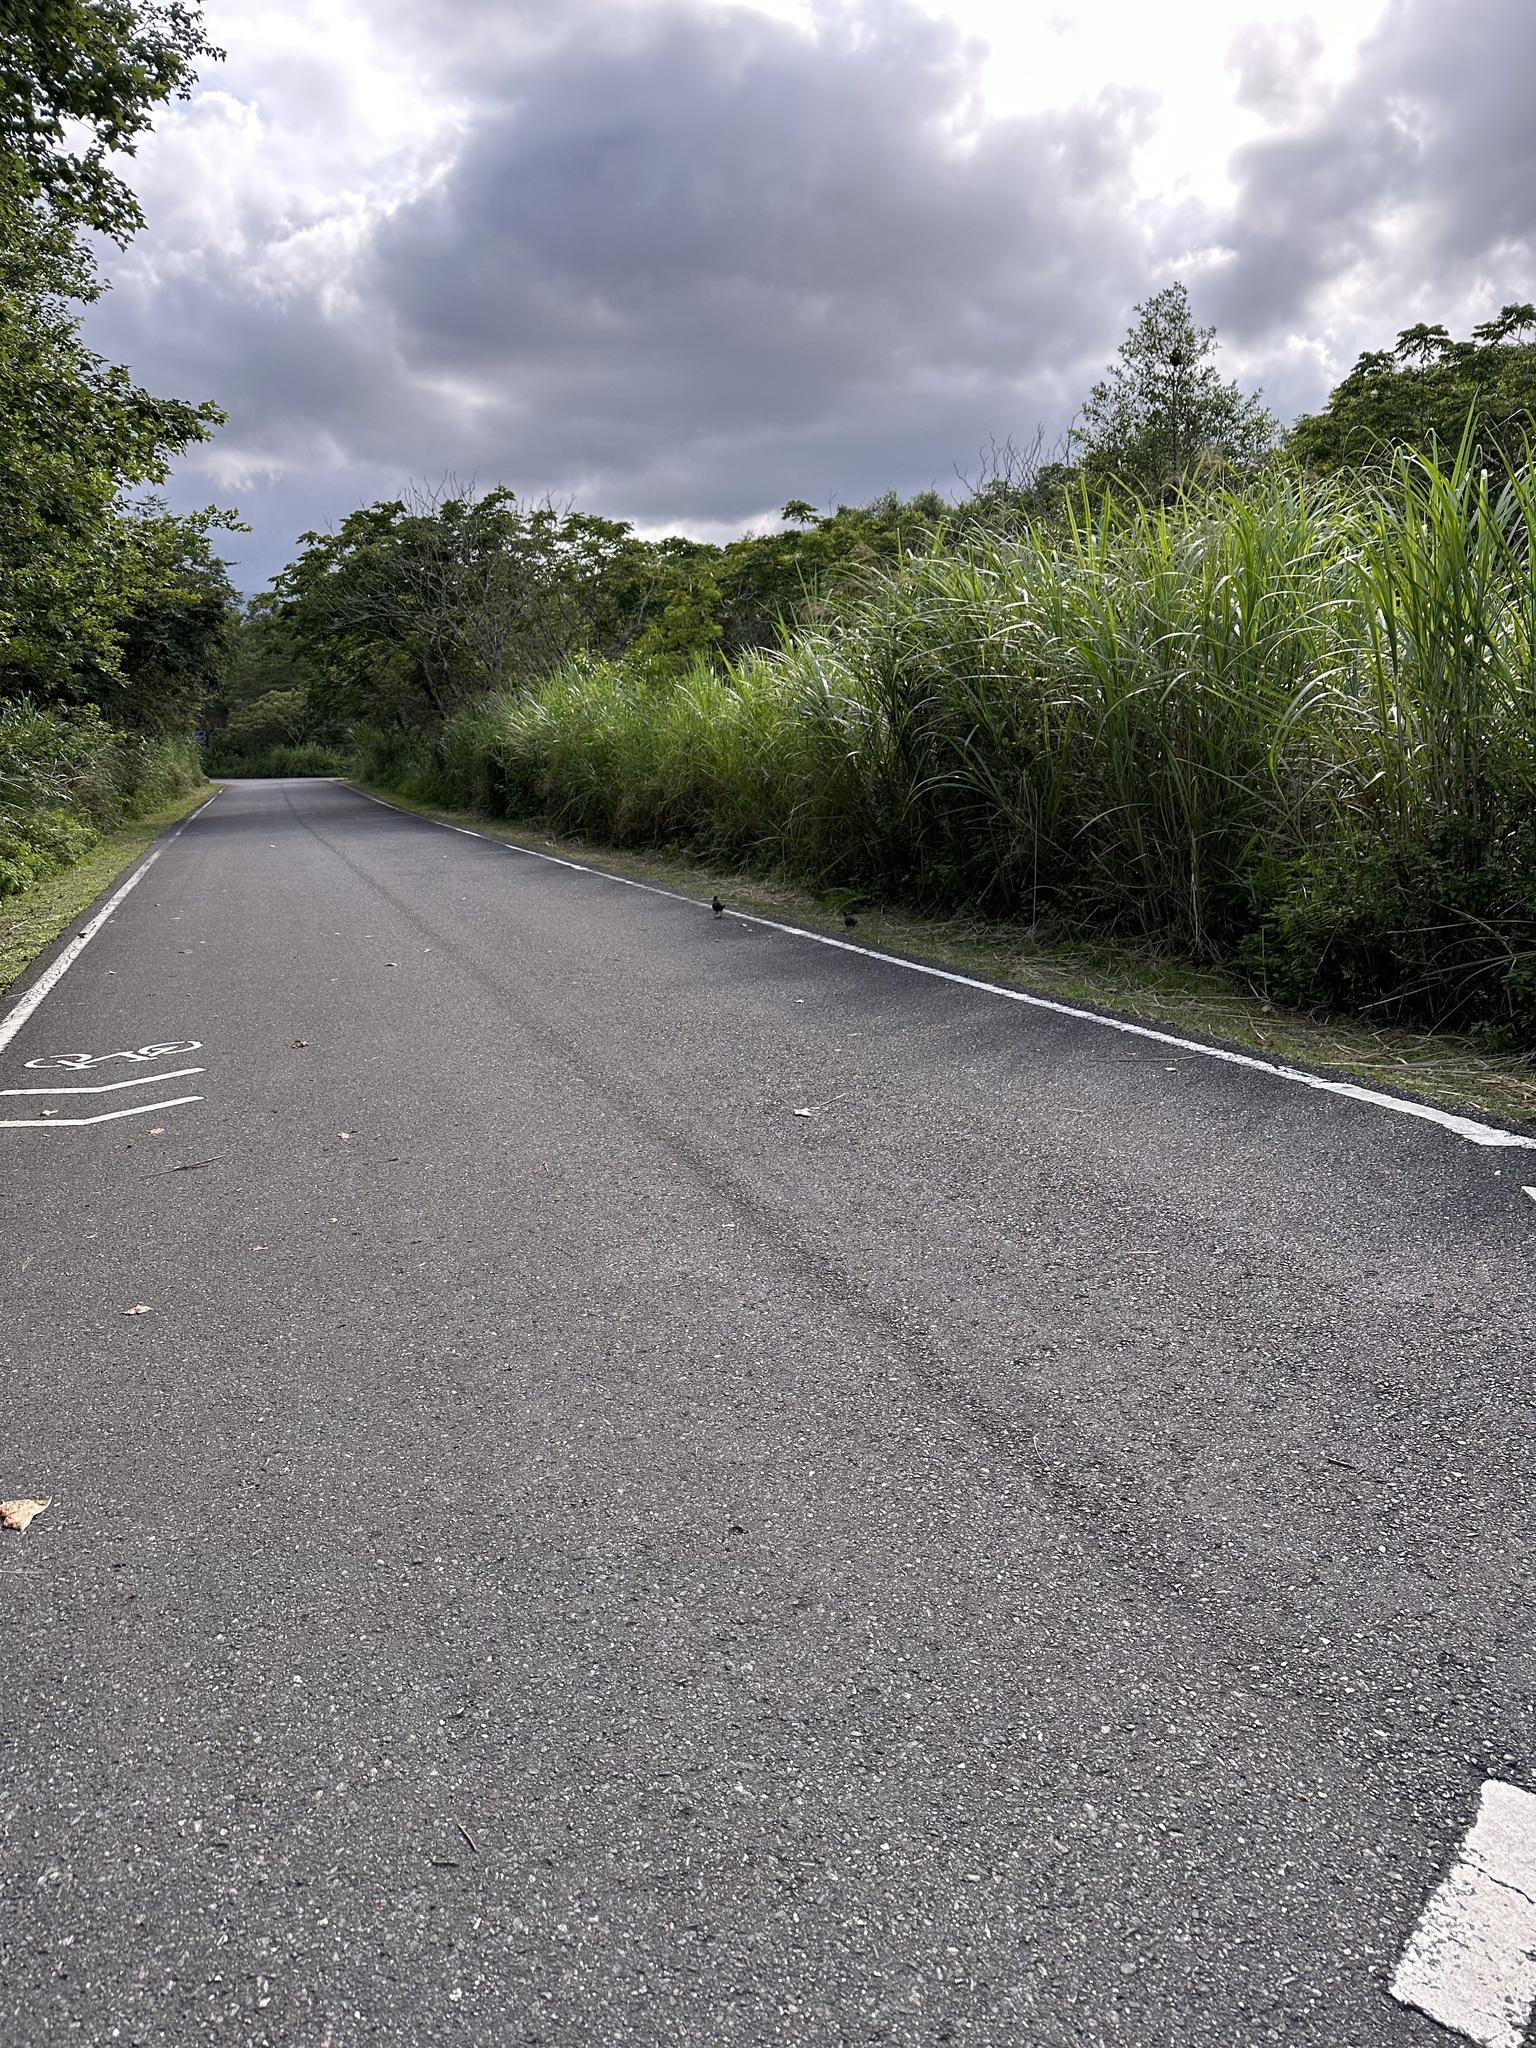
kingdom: Animalia
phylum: Chordata
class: Aves
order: Galliformes
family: Phasianidae
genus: Bambusicola
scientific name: Bambusicola sonorivox
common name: Taiwan bamboo-partridge
